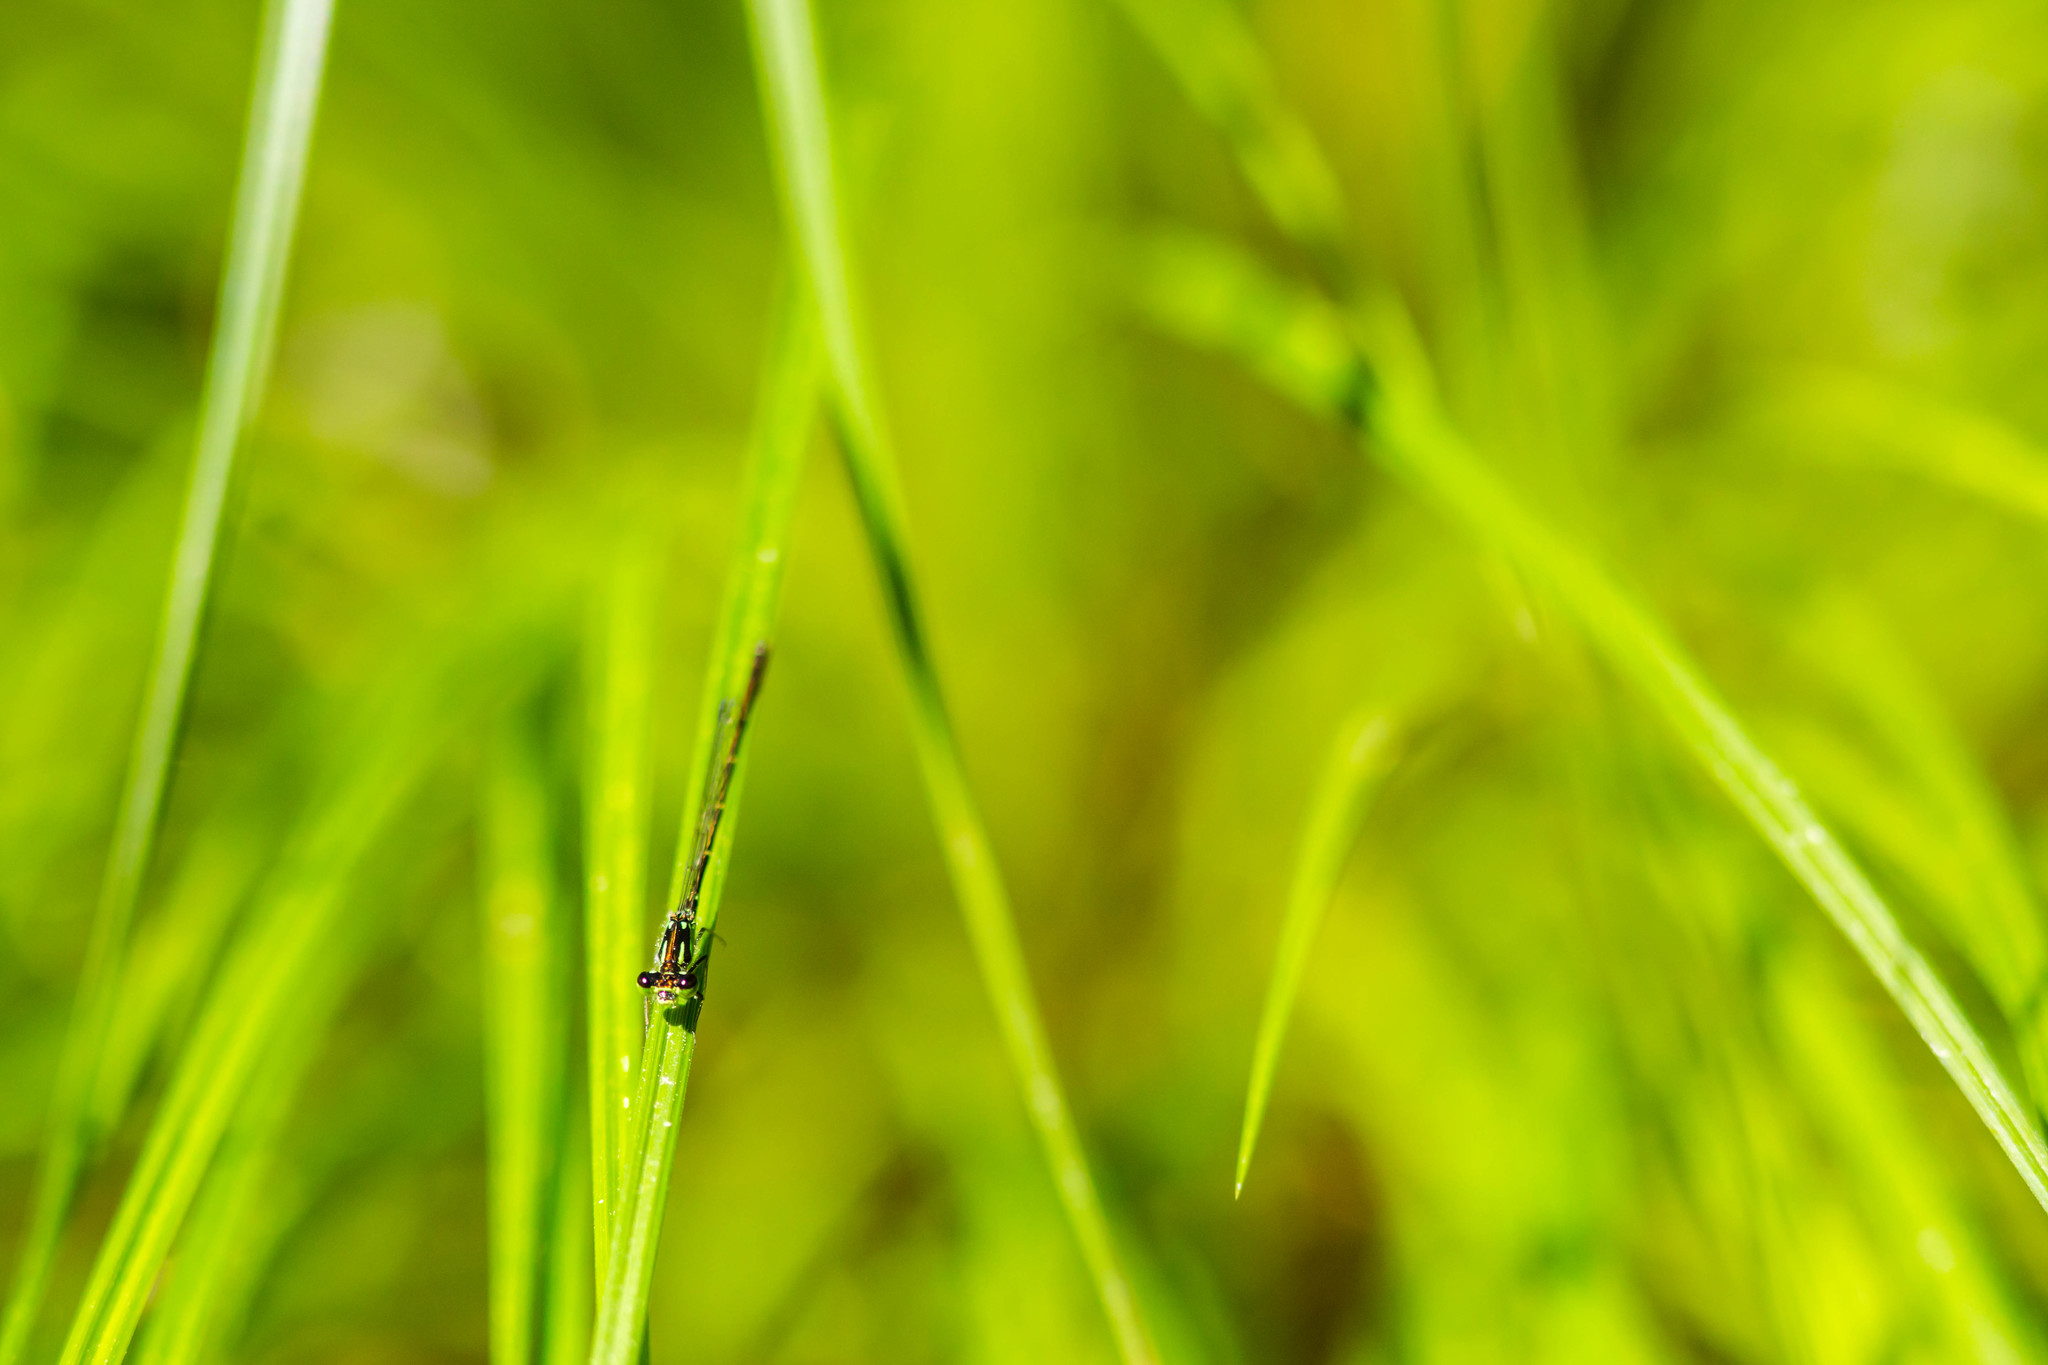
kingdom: Animalia
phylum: Arthropoda
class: Insecta
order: Odonata
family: Coenagrionidae
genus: Ischnura
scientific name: Ischnura posita
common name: Fragile forktail
